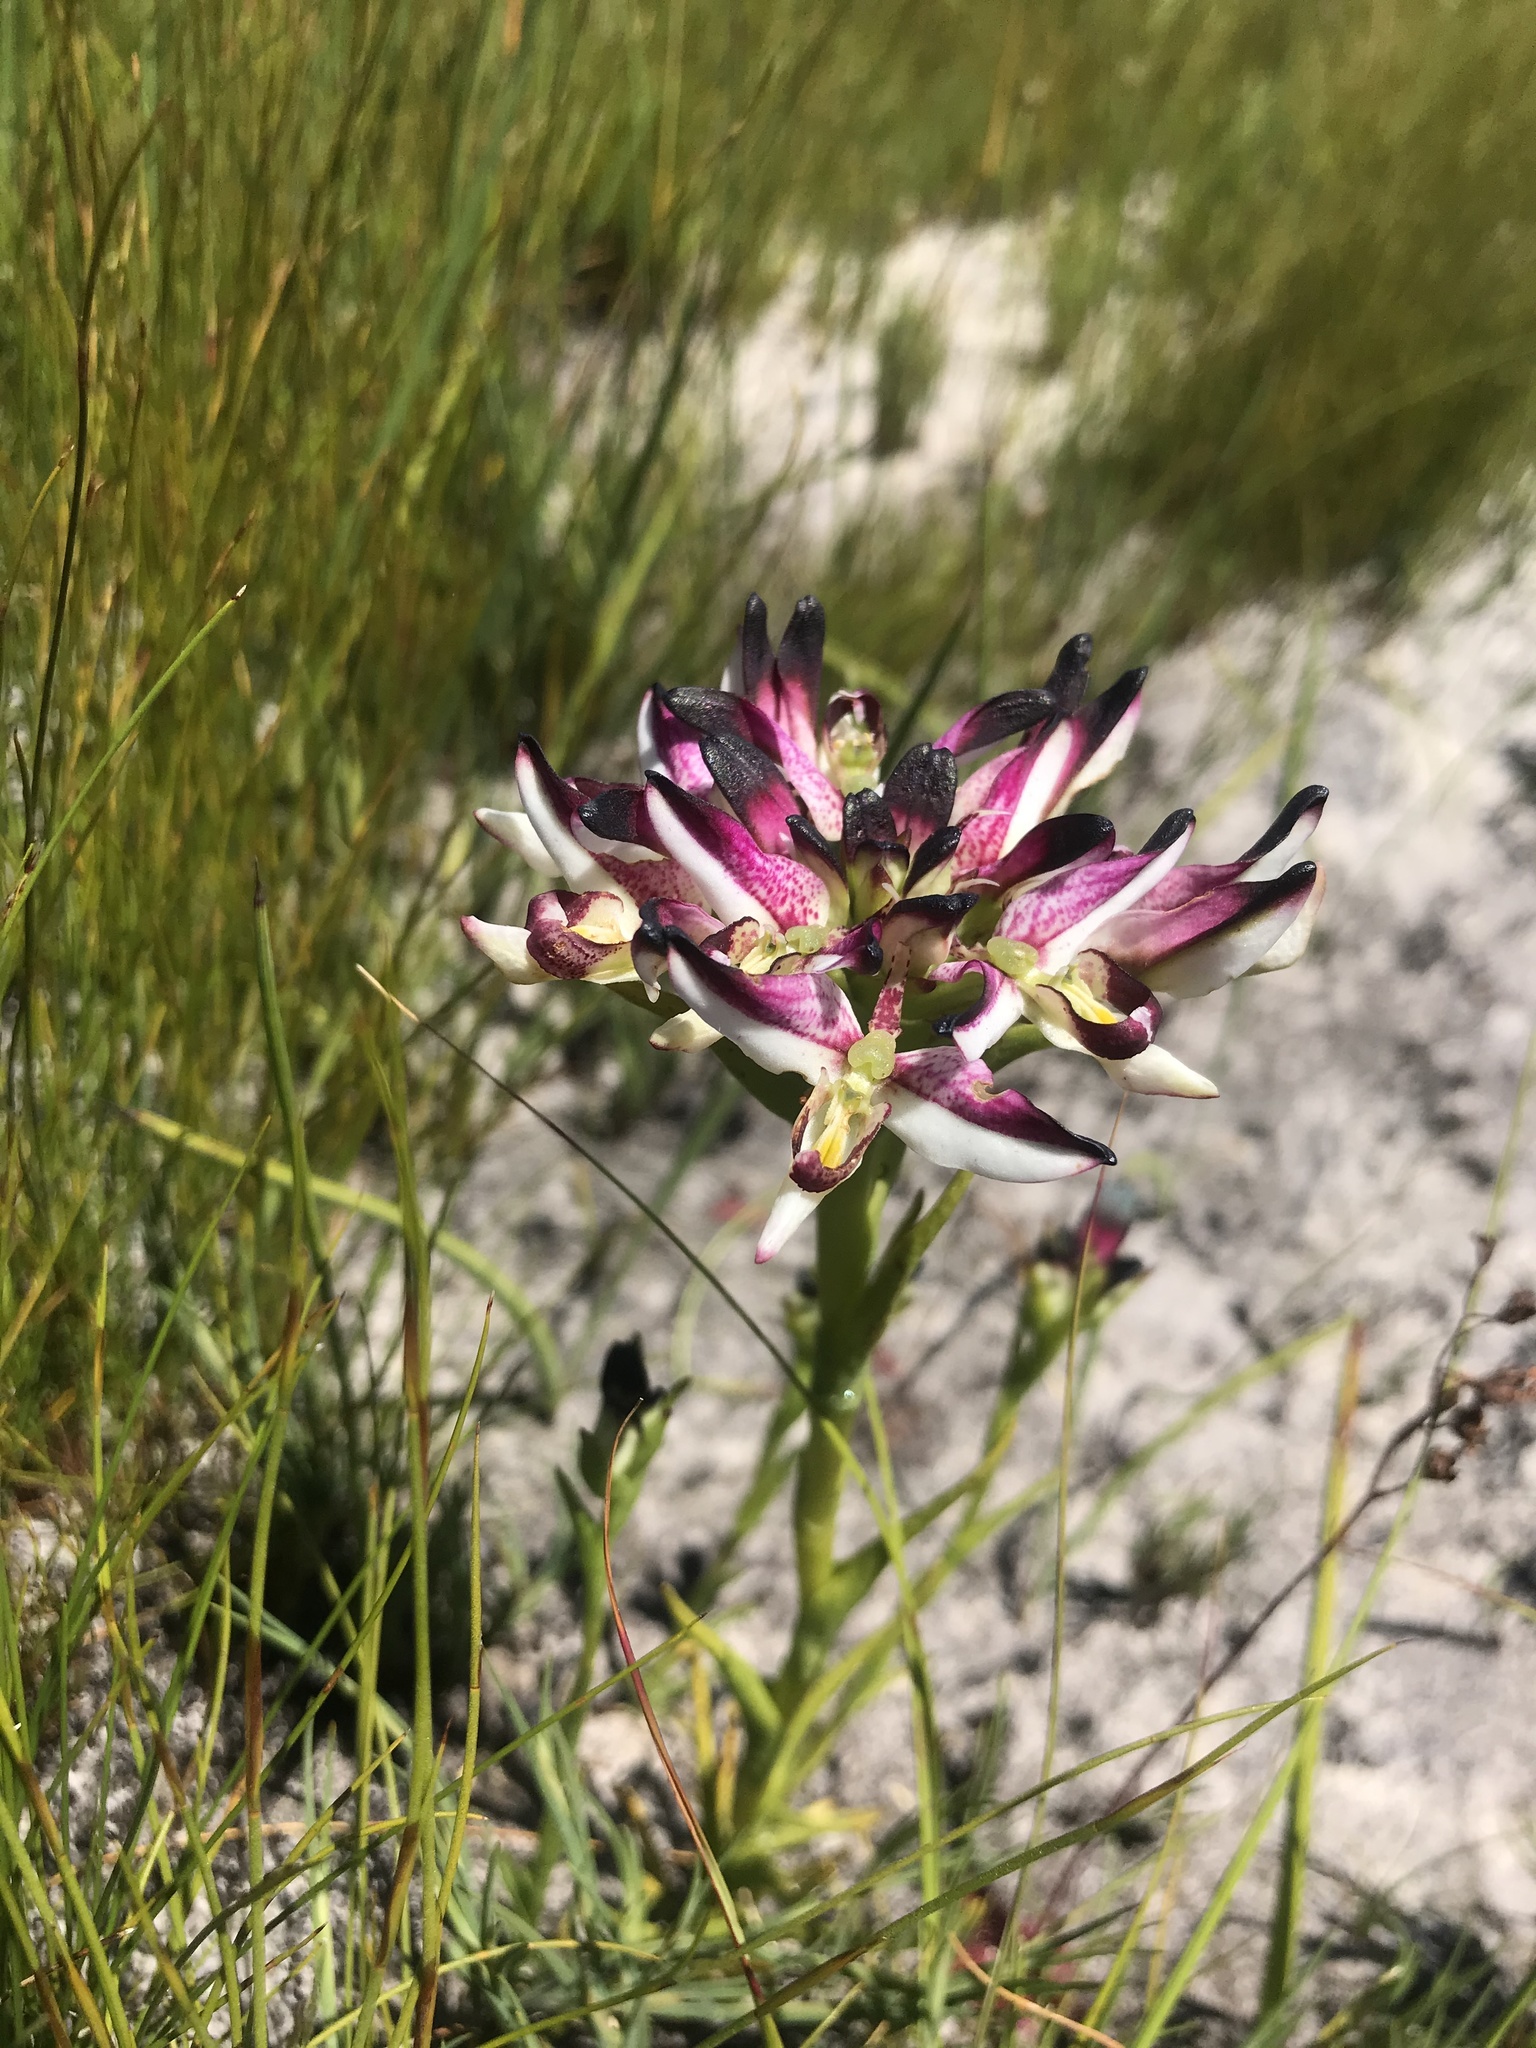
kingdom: Plantae
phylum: Tracheophyta
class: Liliopsida
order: Asparagales
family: Orchidaceae
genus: Disa
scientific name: Disa
